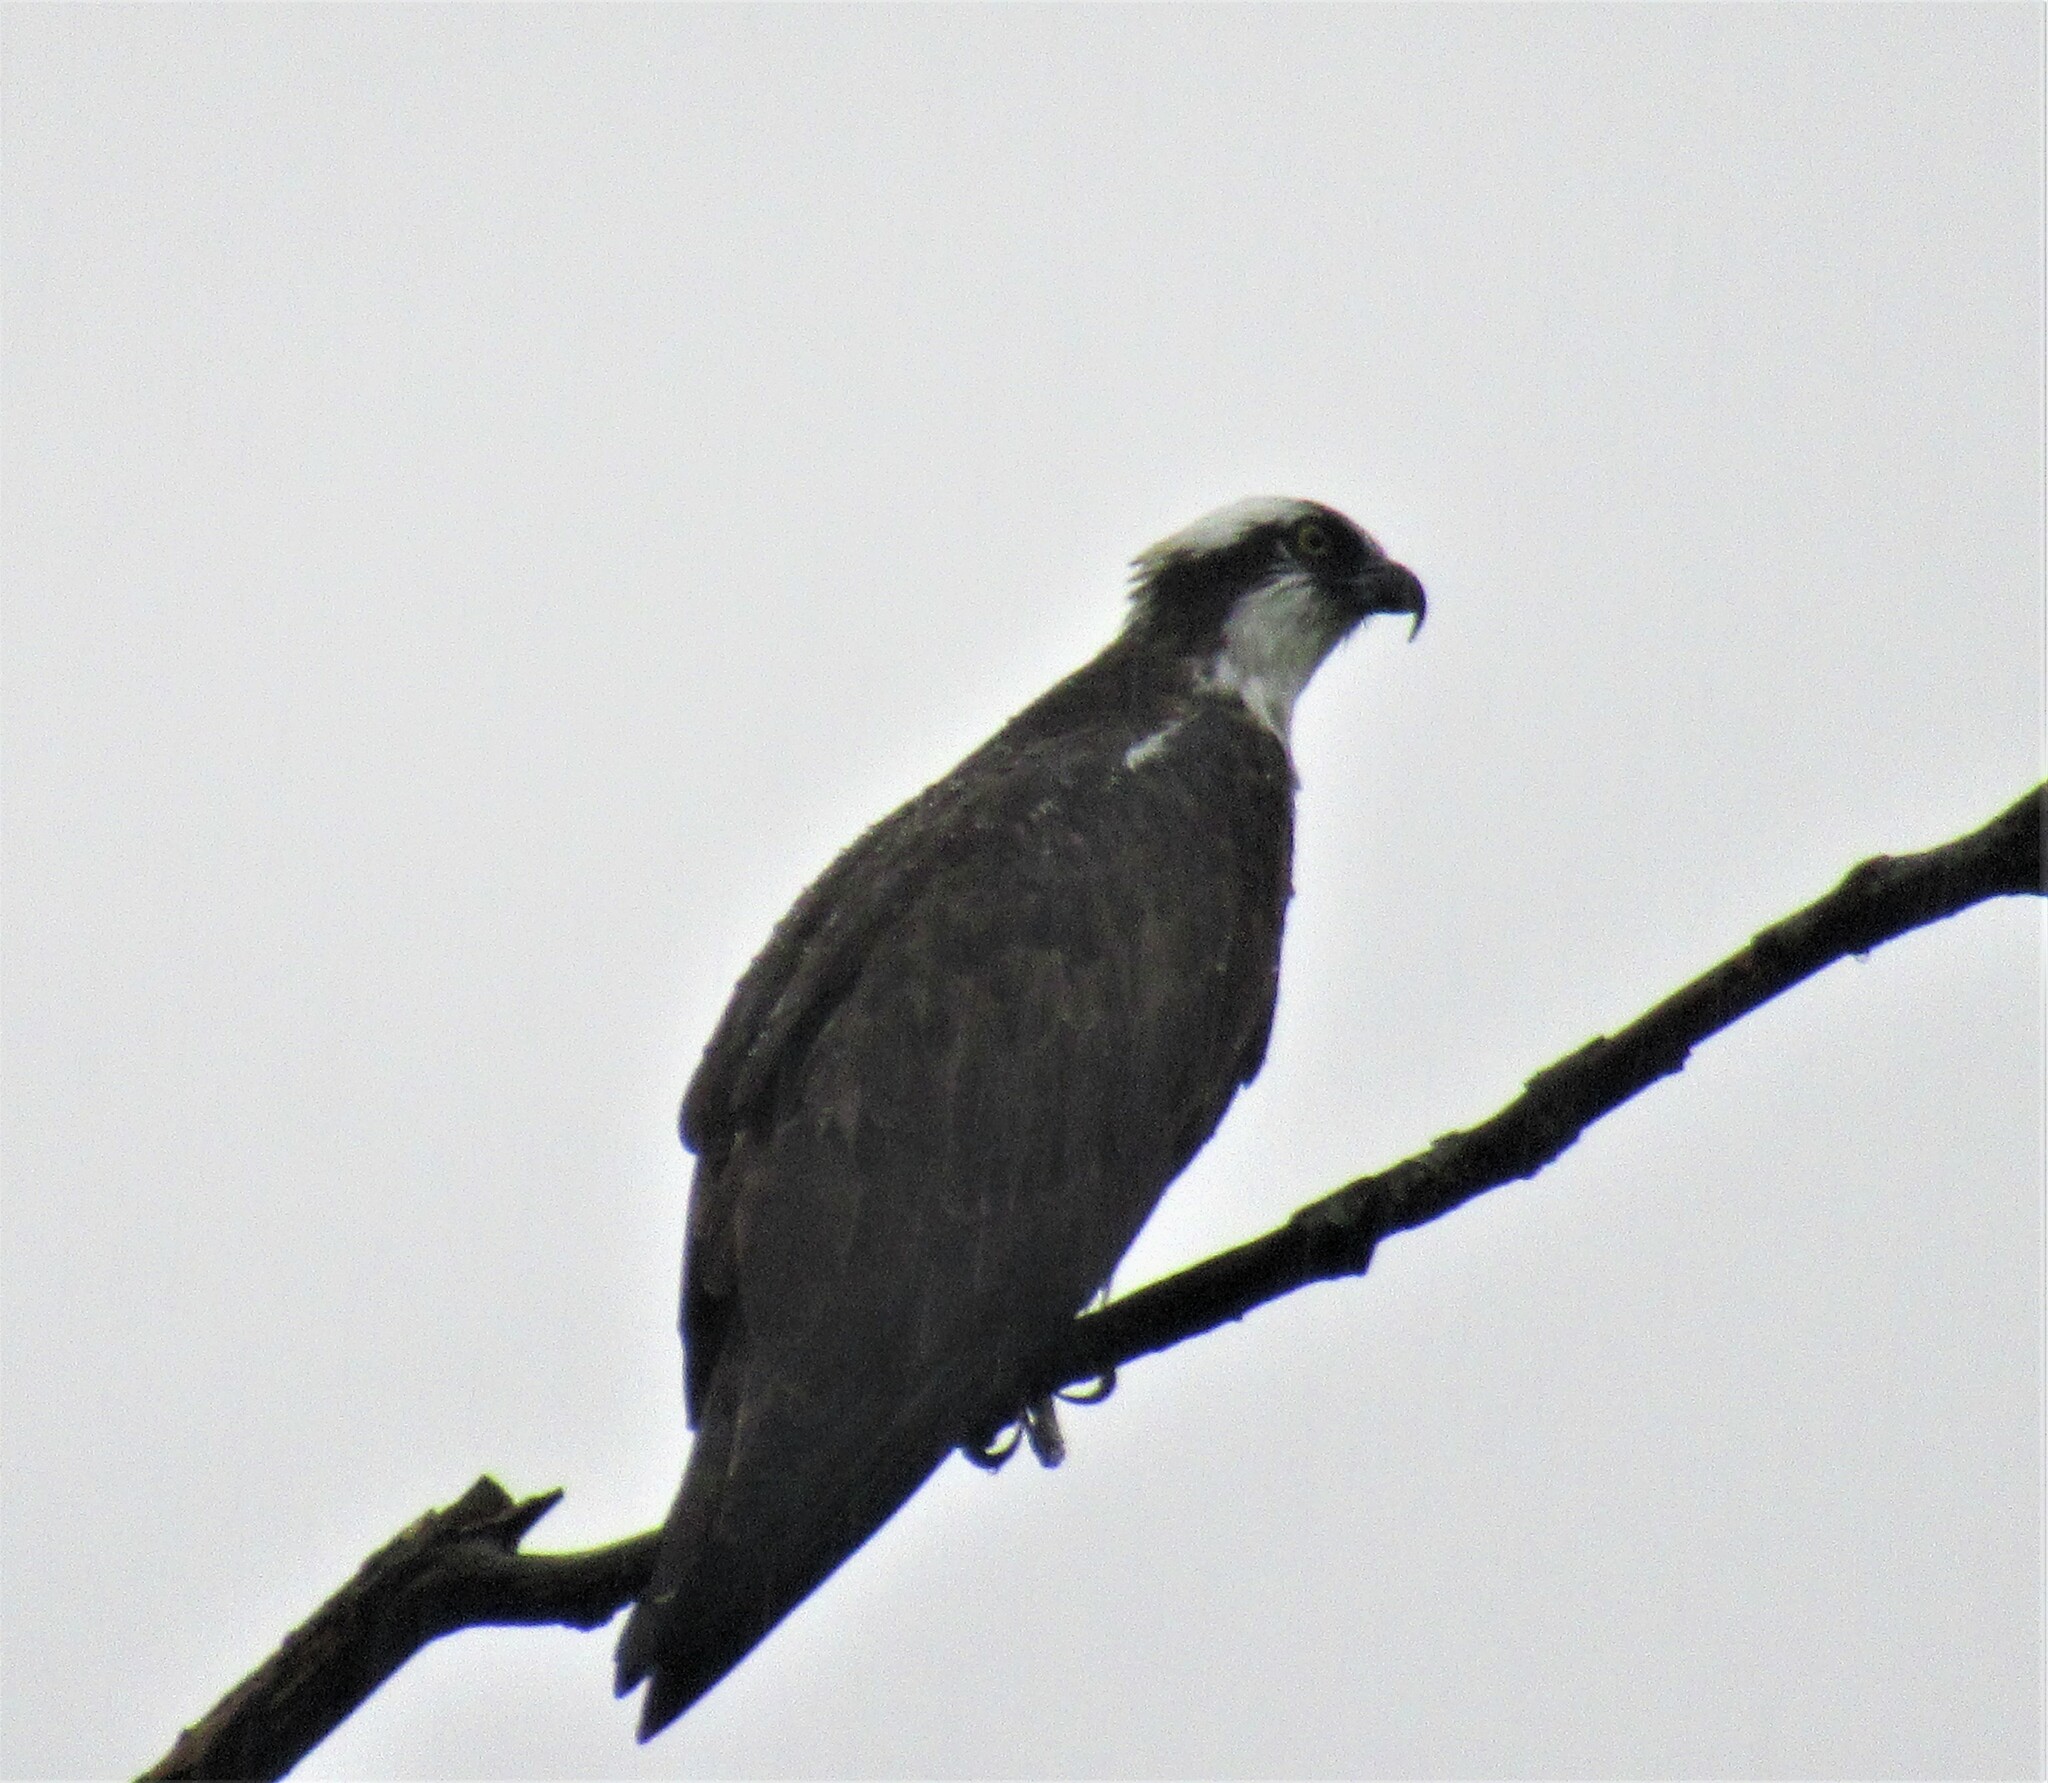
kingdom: Animalia
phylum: Chordata
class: Aves
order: Accipitriformes
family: Pandionidae
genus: Pandion
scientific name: Pandion haliaetus
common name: Osprey
